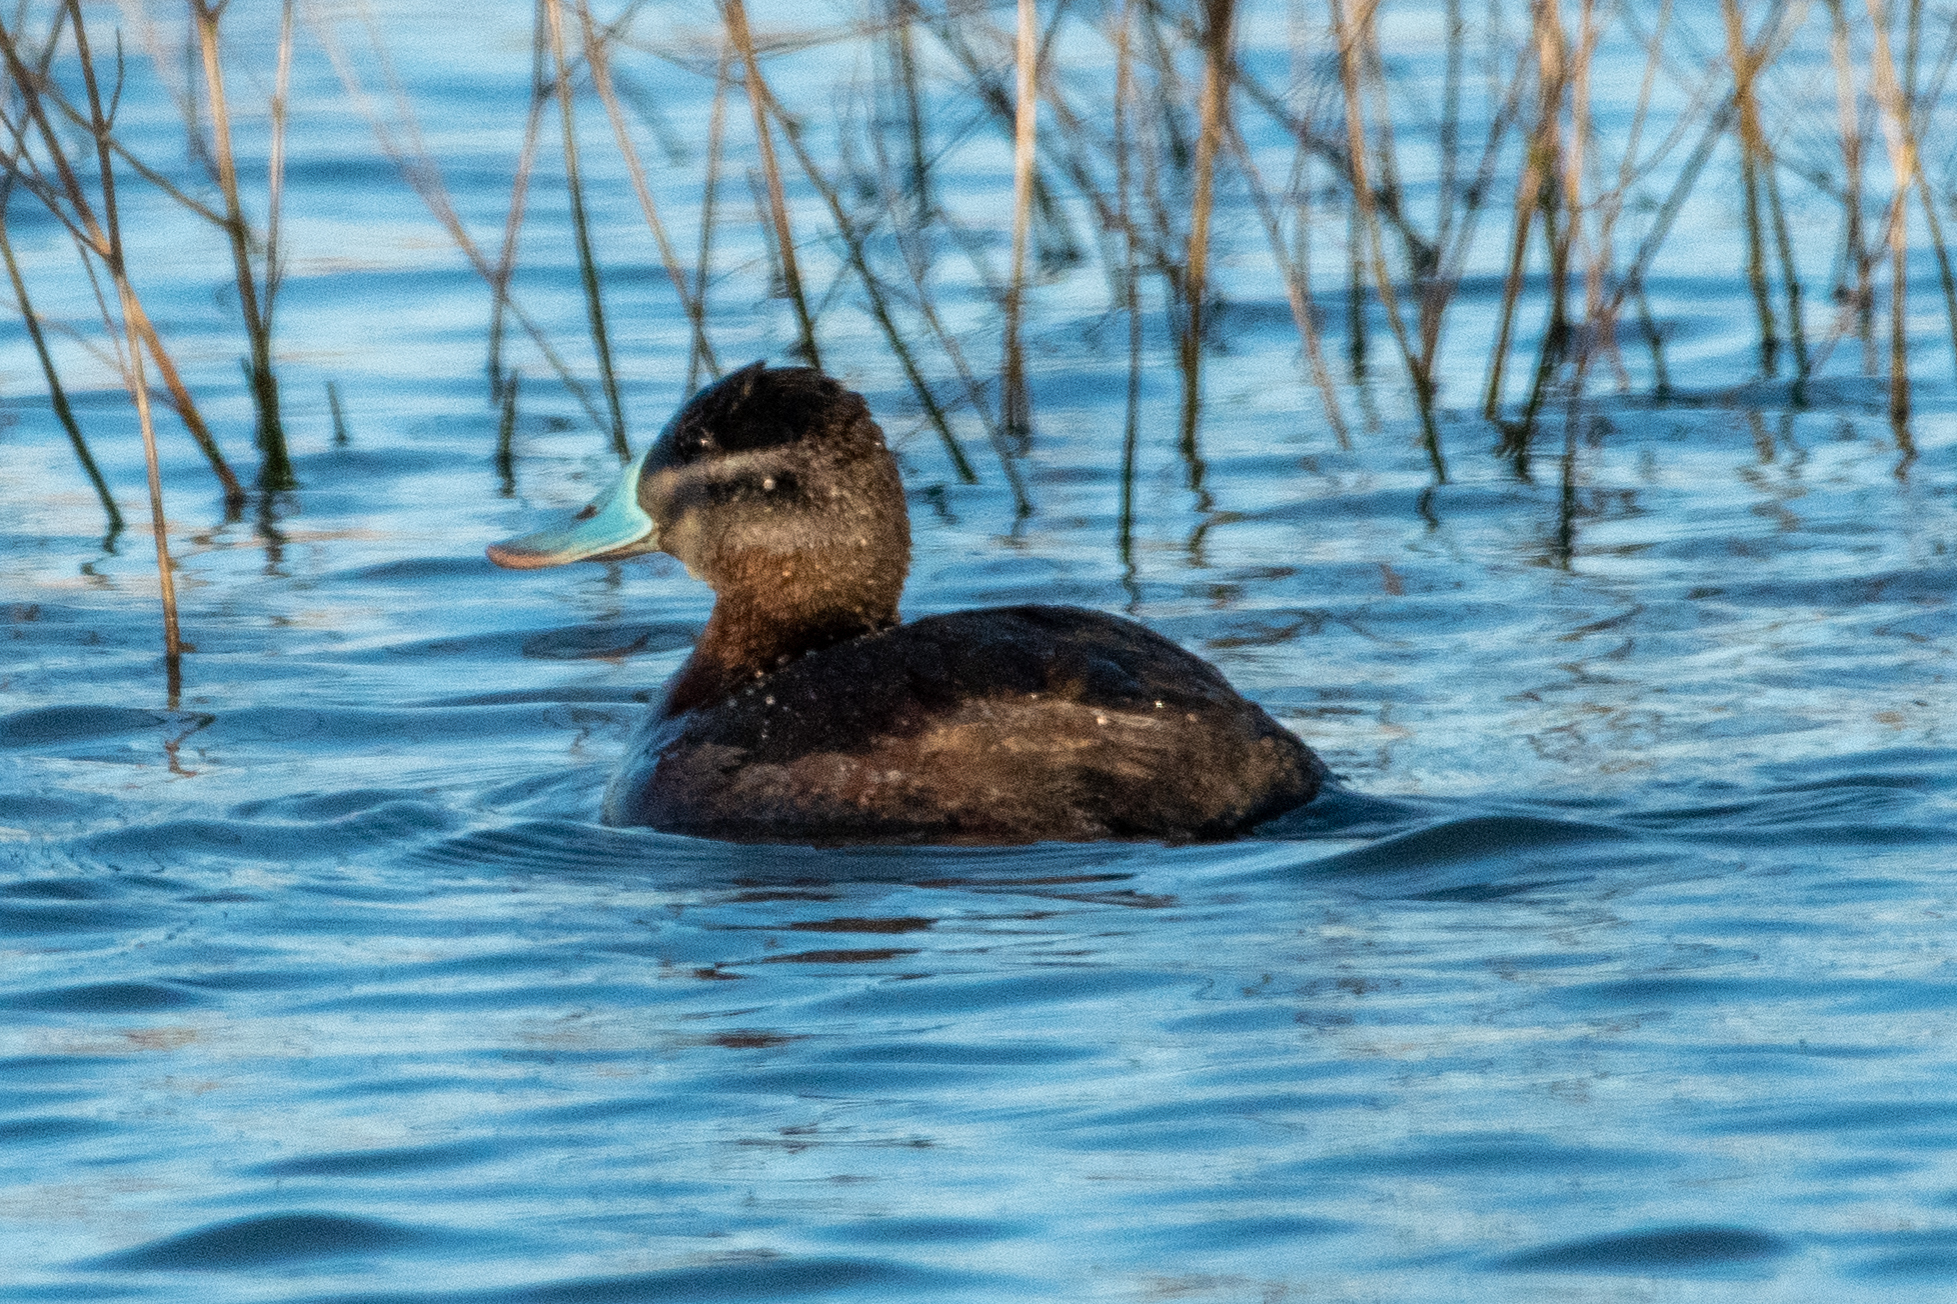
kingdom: Animalia
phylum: Chordata
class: Aves
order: Anseriformes
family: Anatidae
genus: Oxyura
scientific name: Oxyura jamaicensis
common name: Ruddy duck
